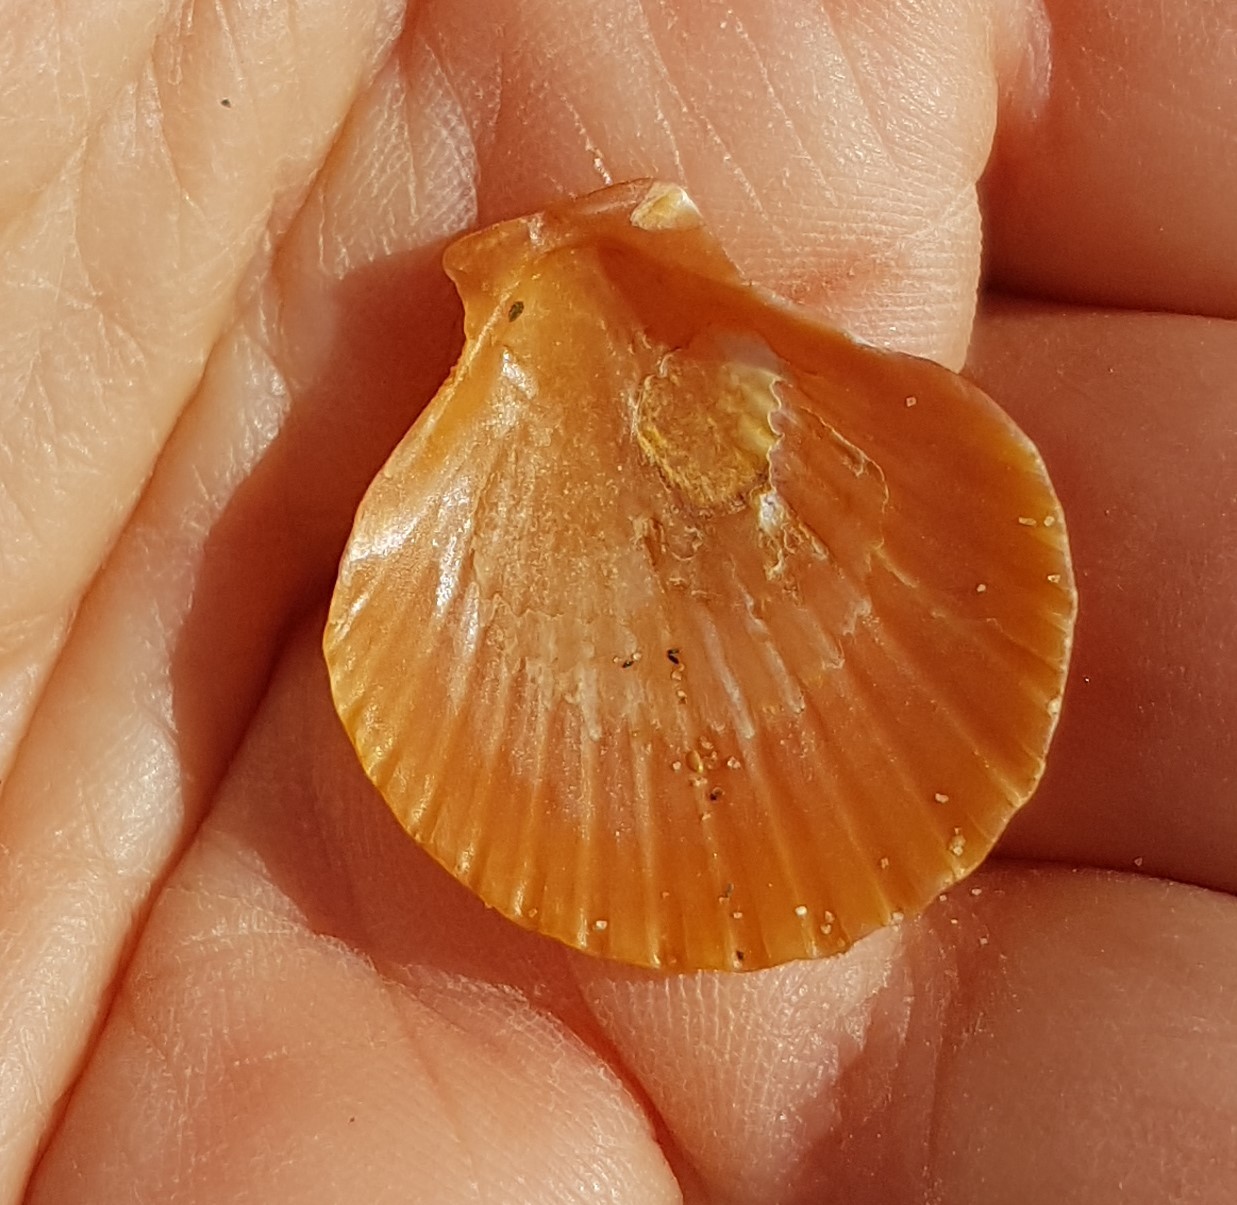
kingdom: Animalia
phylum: Mollusca
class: Bivalvia
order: Pectinida
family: Pectinidae
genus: Aequipecten
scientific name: Aequipecten opercularis
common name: Queen scallop
